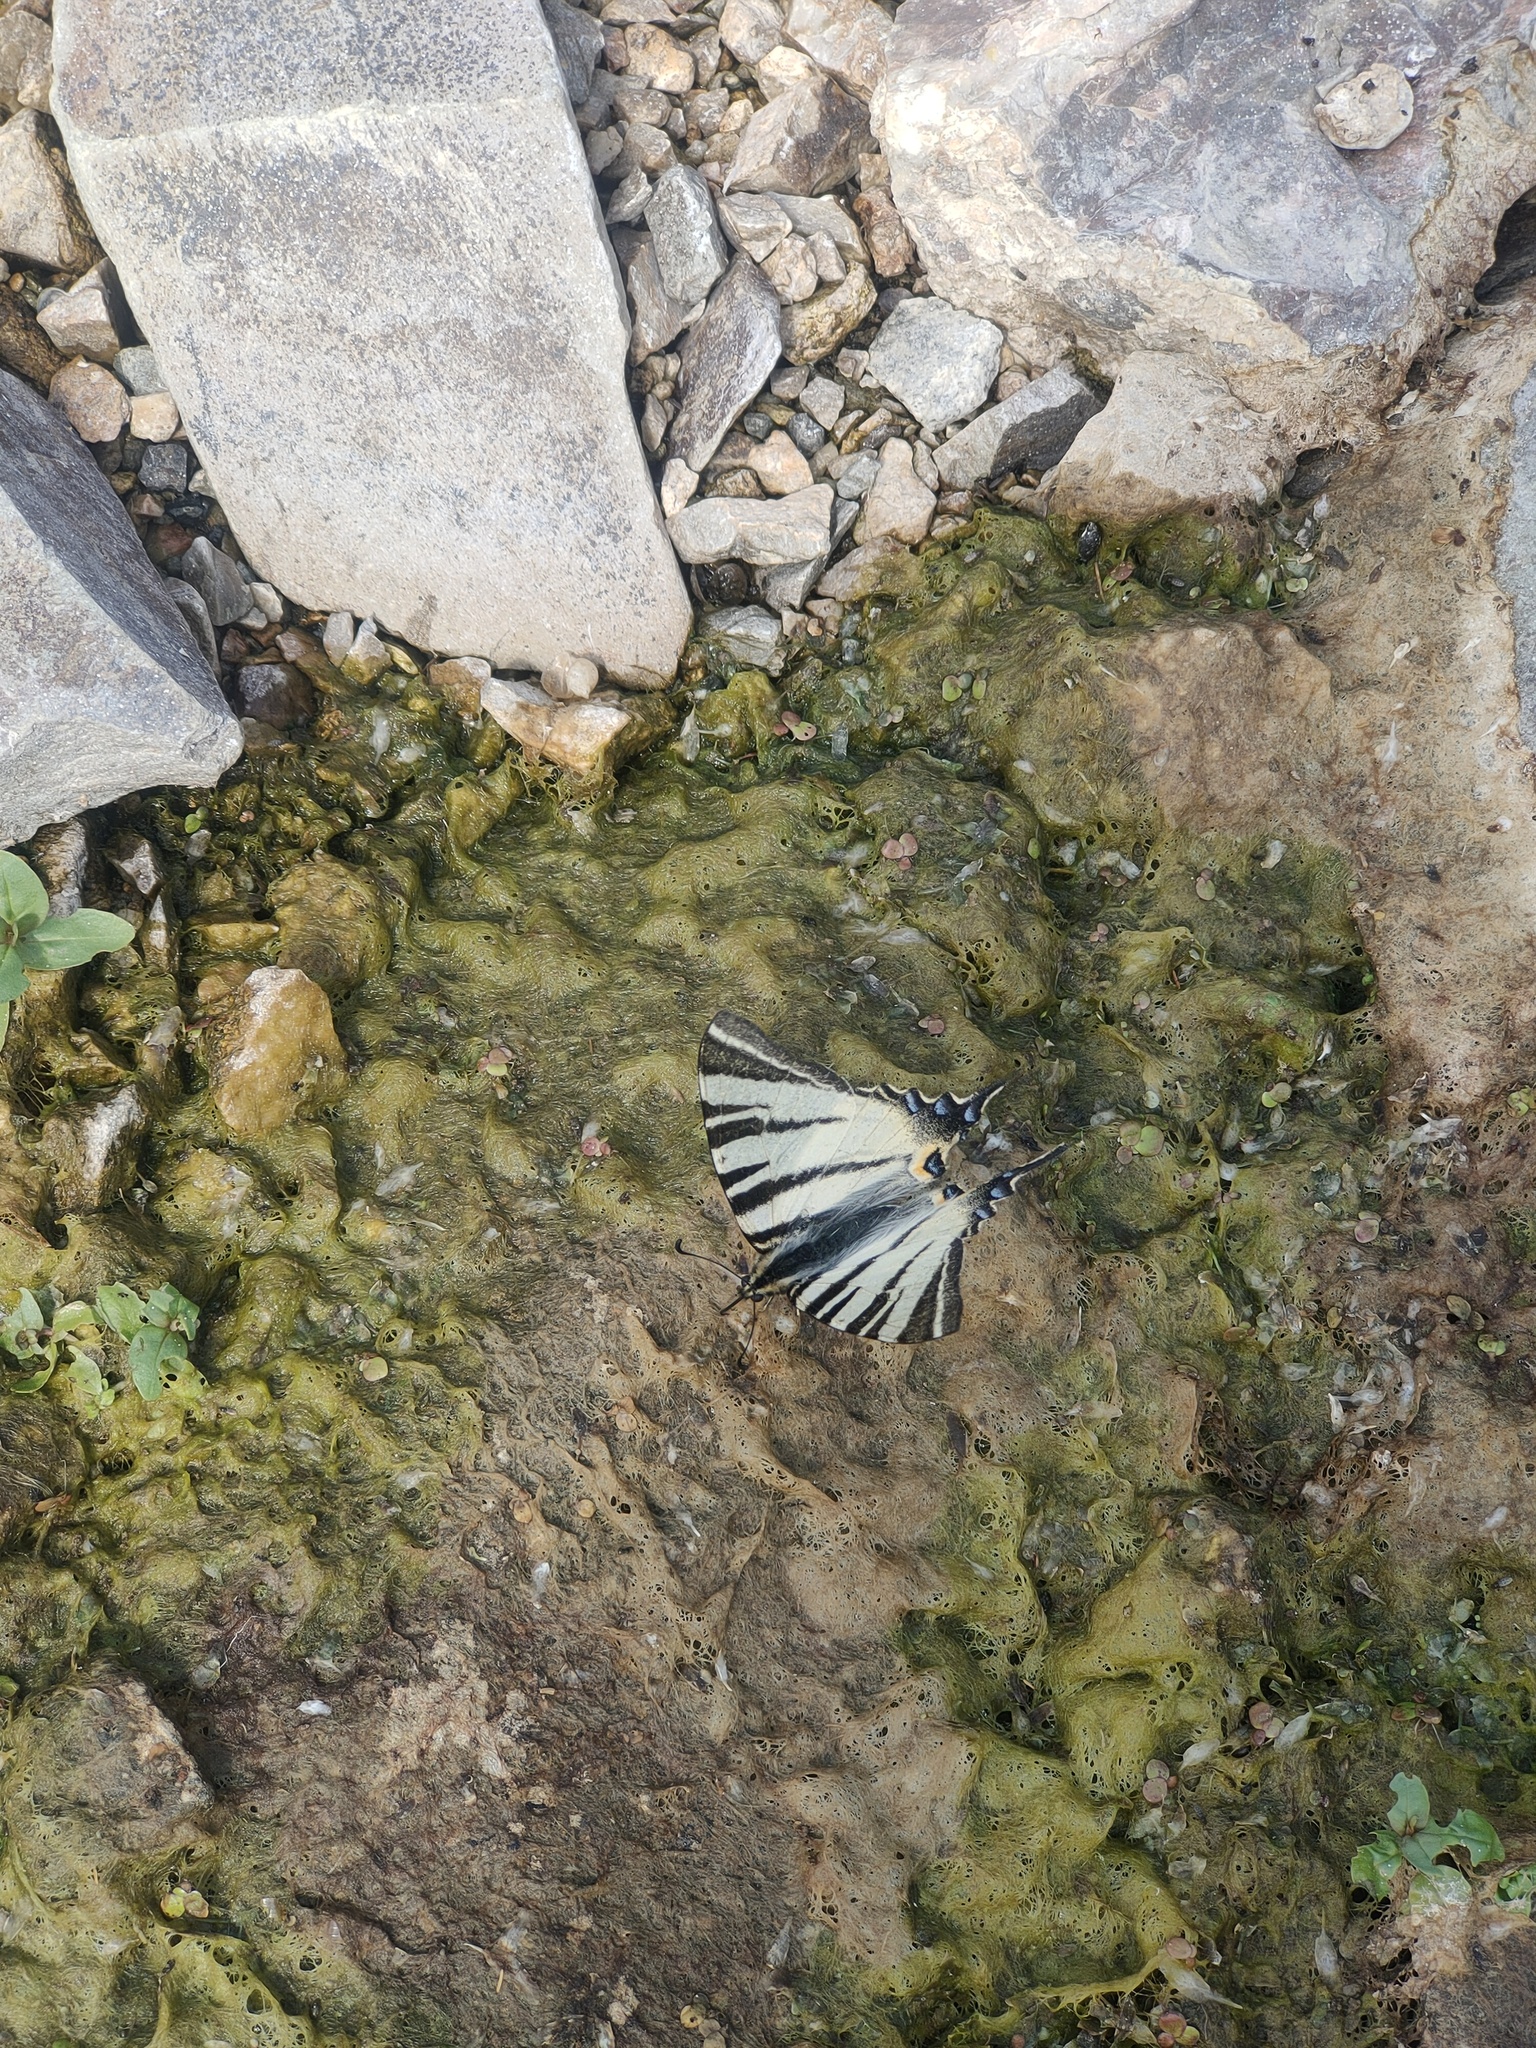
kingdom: Animalia
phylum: Arthropoda
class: Insecta
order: Lepidoptera
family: Papilionidae
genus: Iphiclides
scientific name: Iphiclides podalirius
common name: Scarce swallowtail
